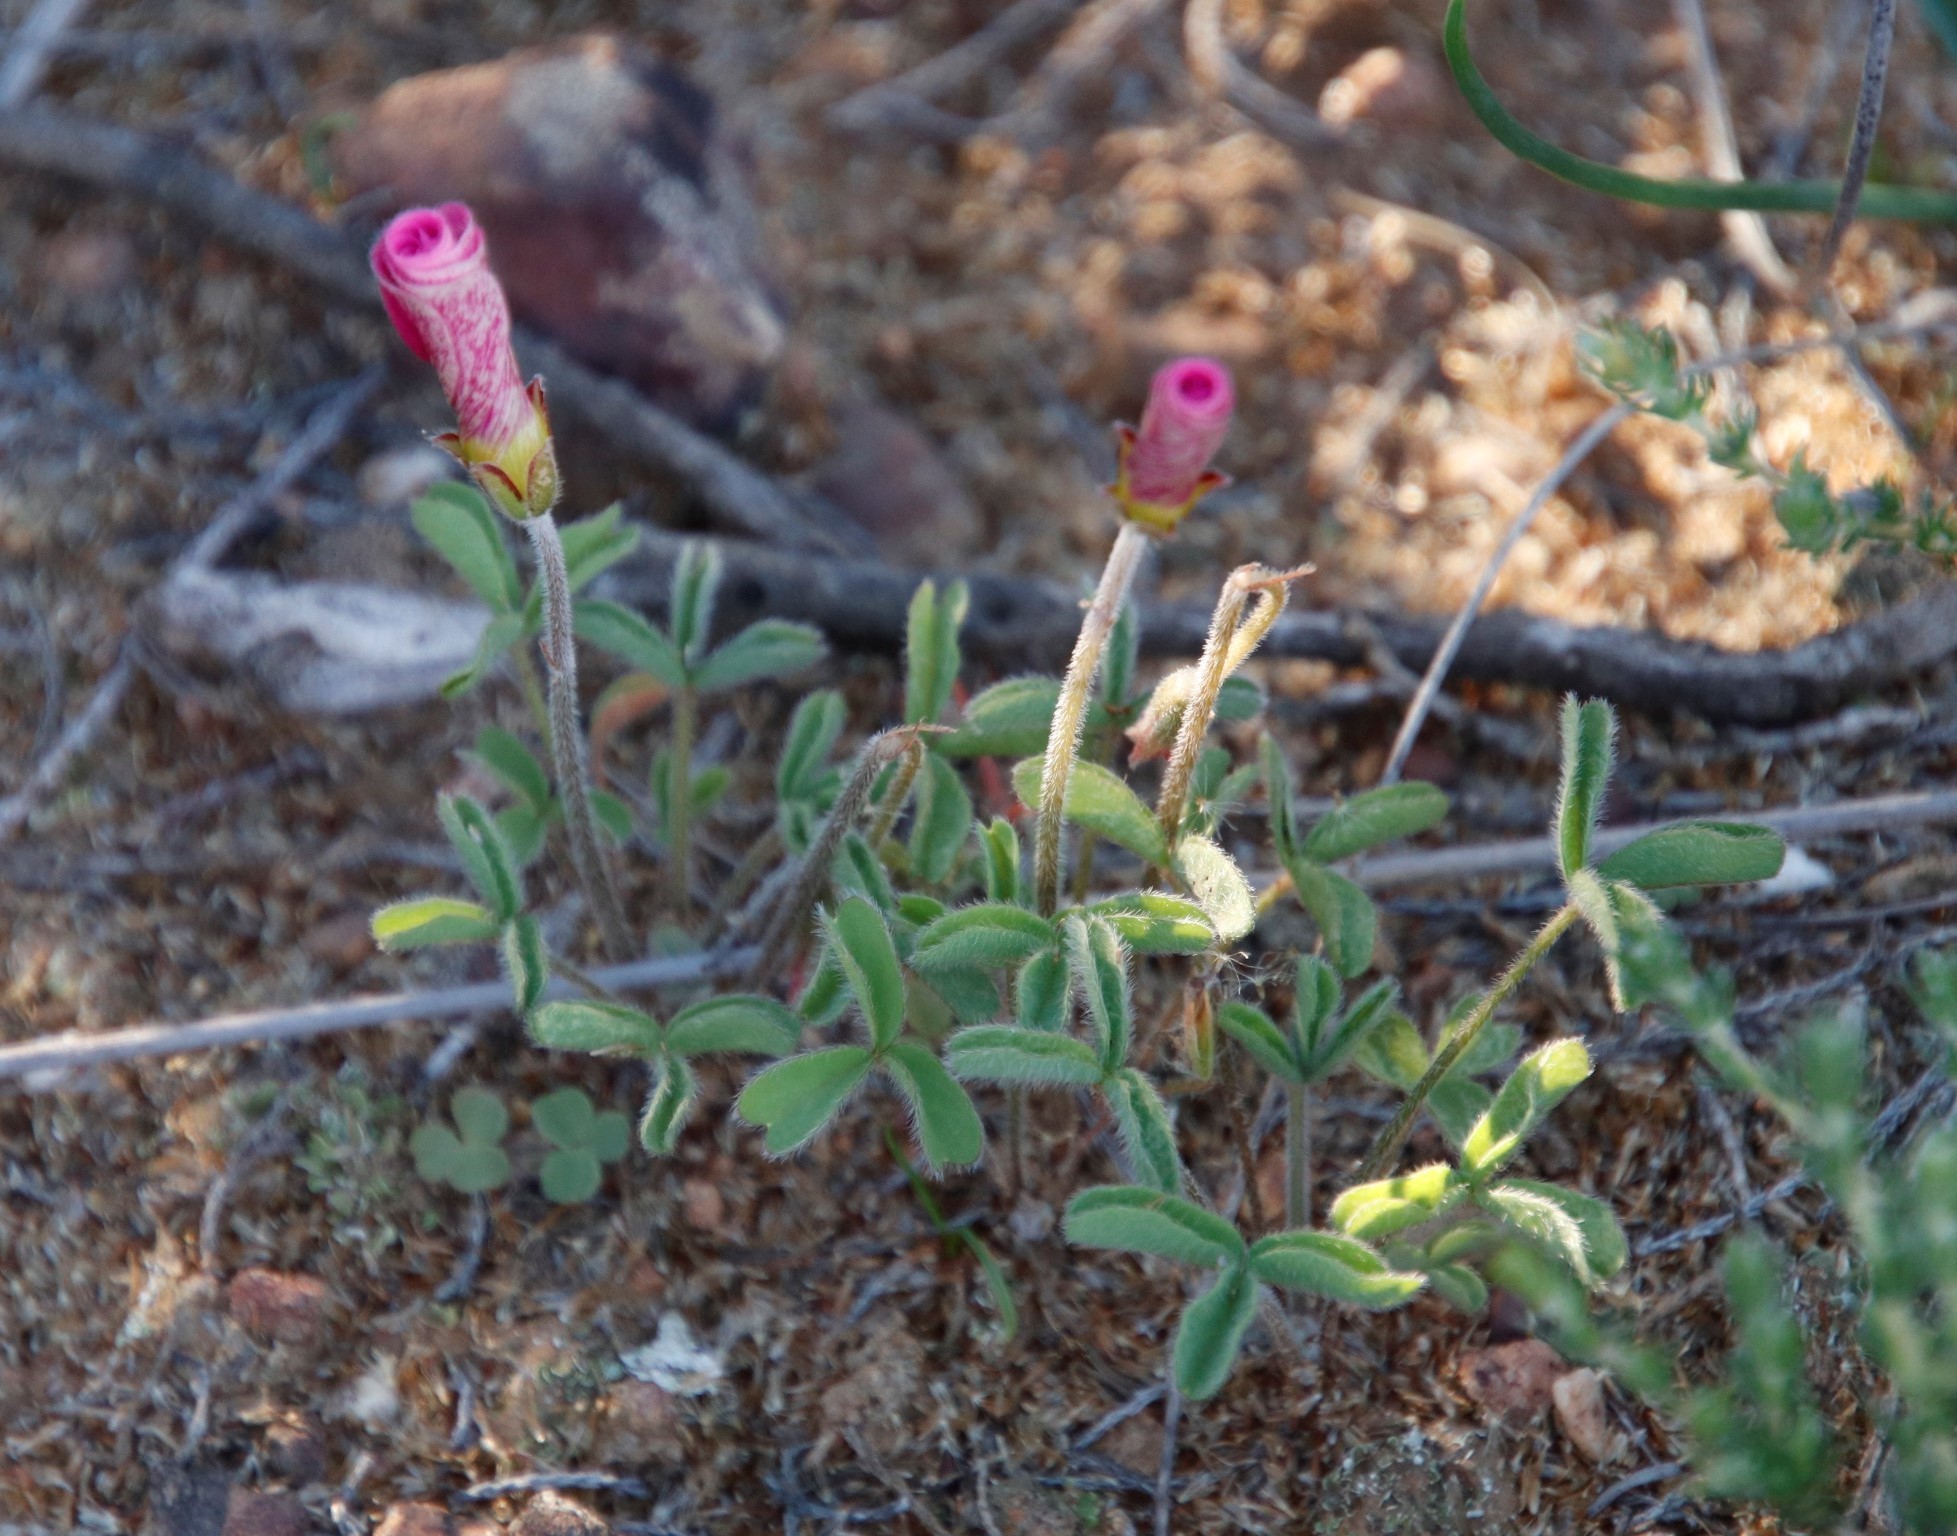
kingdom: Plantae
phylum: Tracheophyta
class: Magnoliopsida
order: Oxalidales
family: Oxalidaceae
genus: Oxalis
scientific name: Oxalis obtusa
